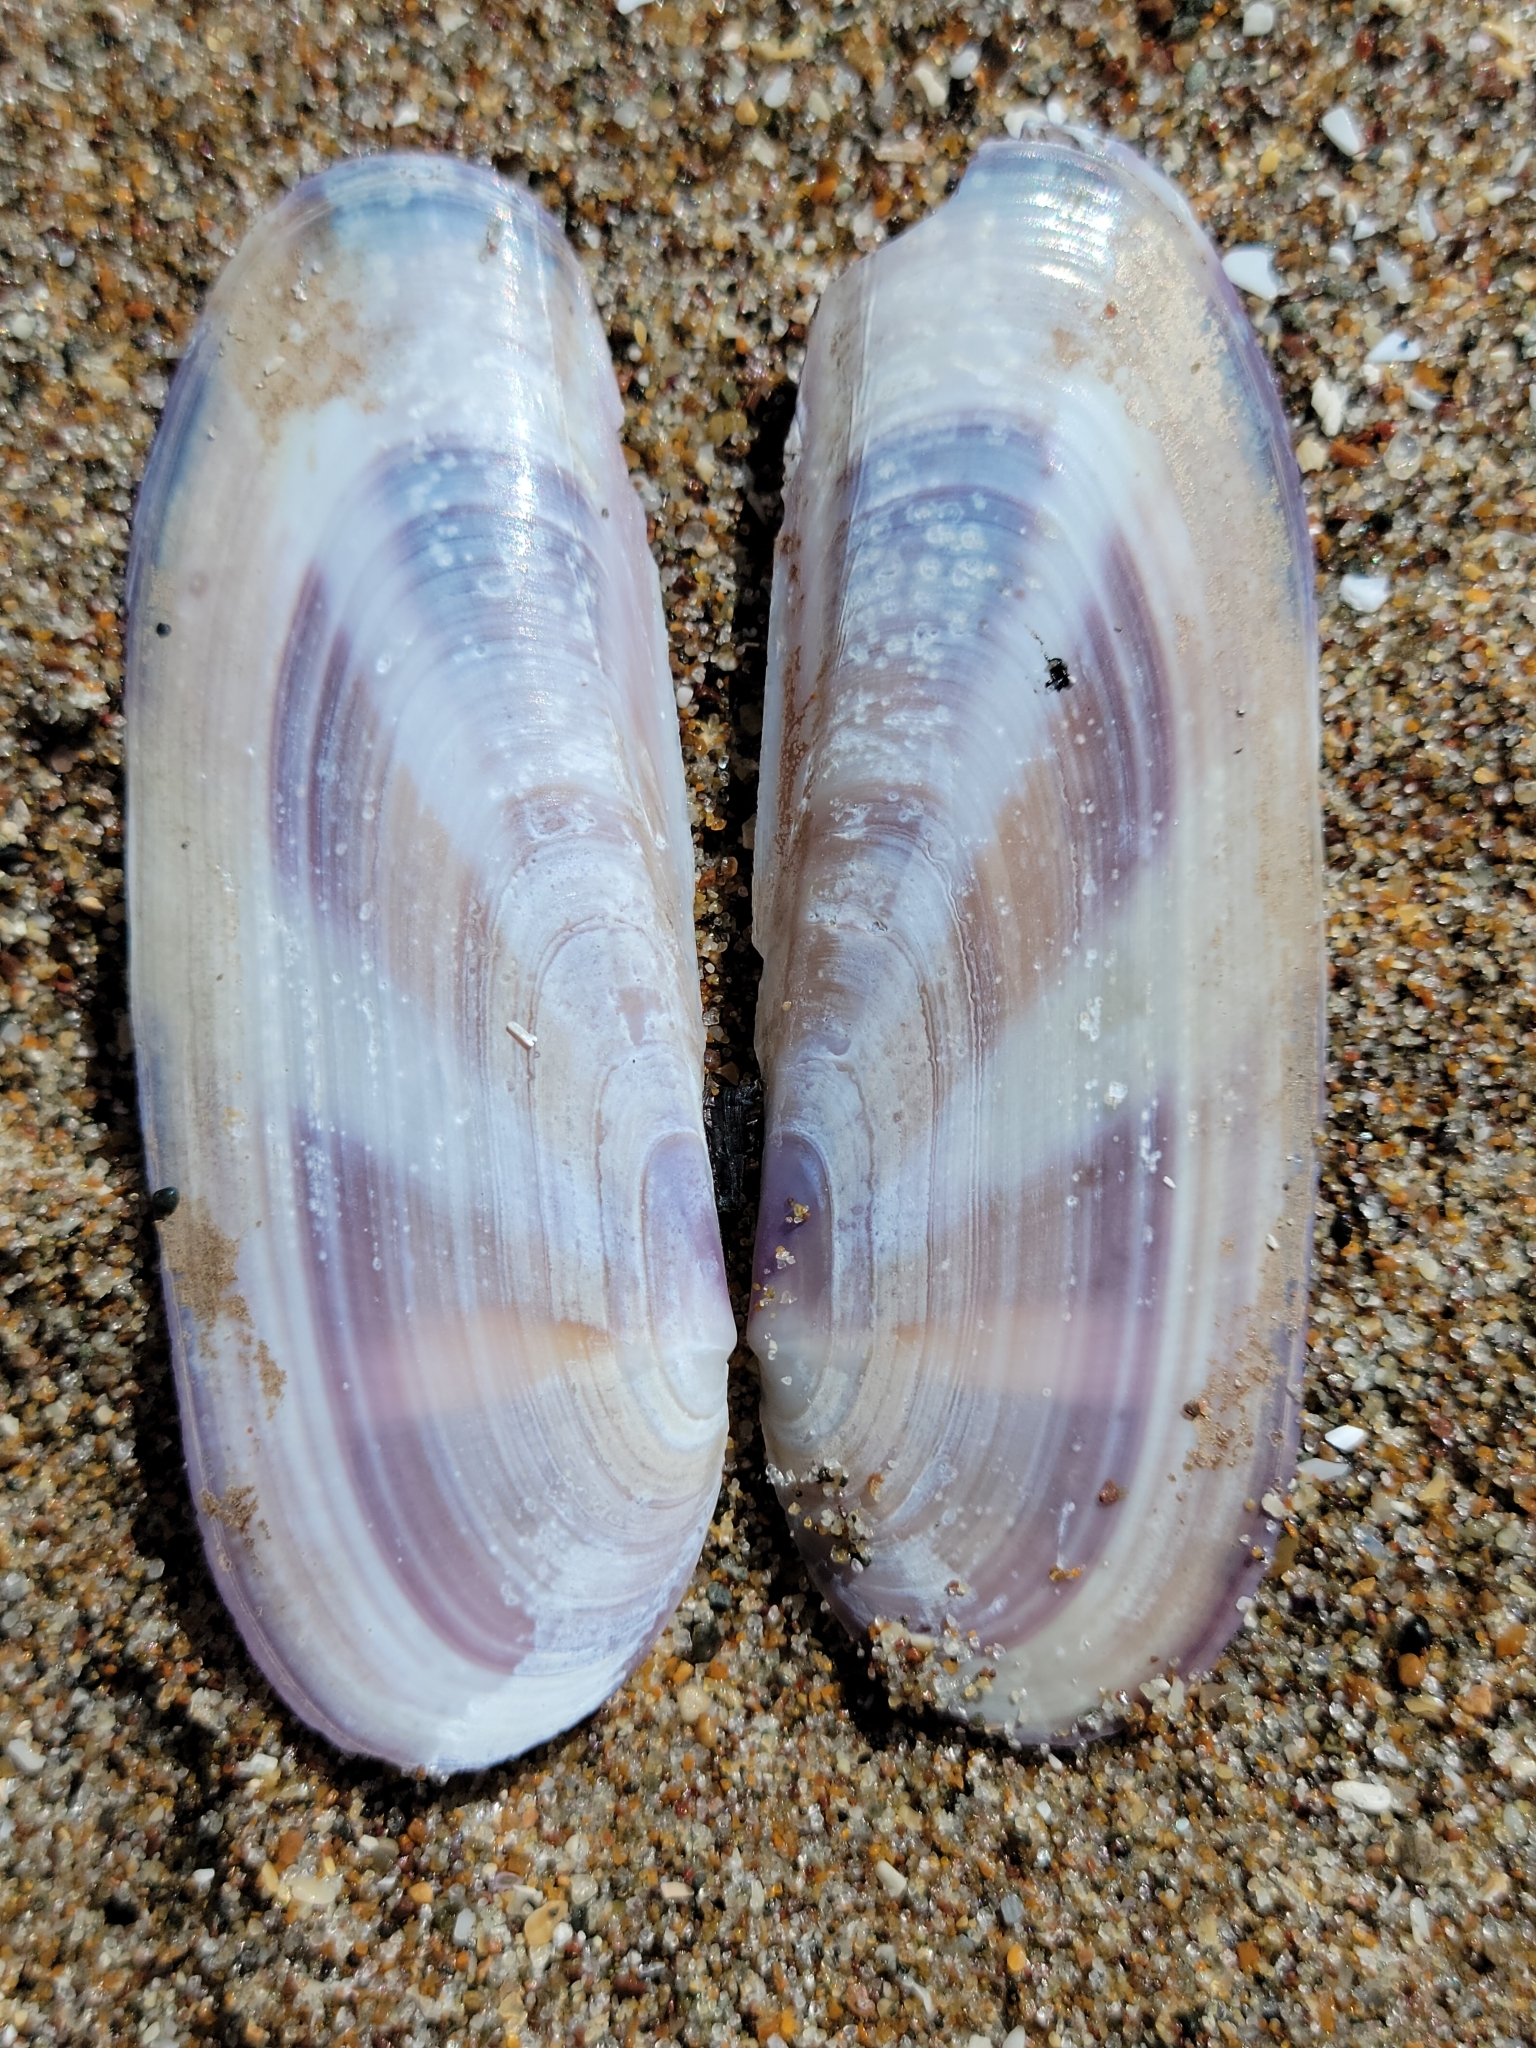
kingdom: Animalia
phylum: Mollusca
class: Bivalvia
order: Adapedonta
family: Pharidae
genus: Siliqua
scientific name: Siliqua lucida
